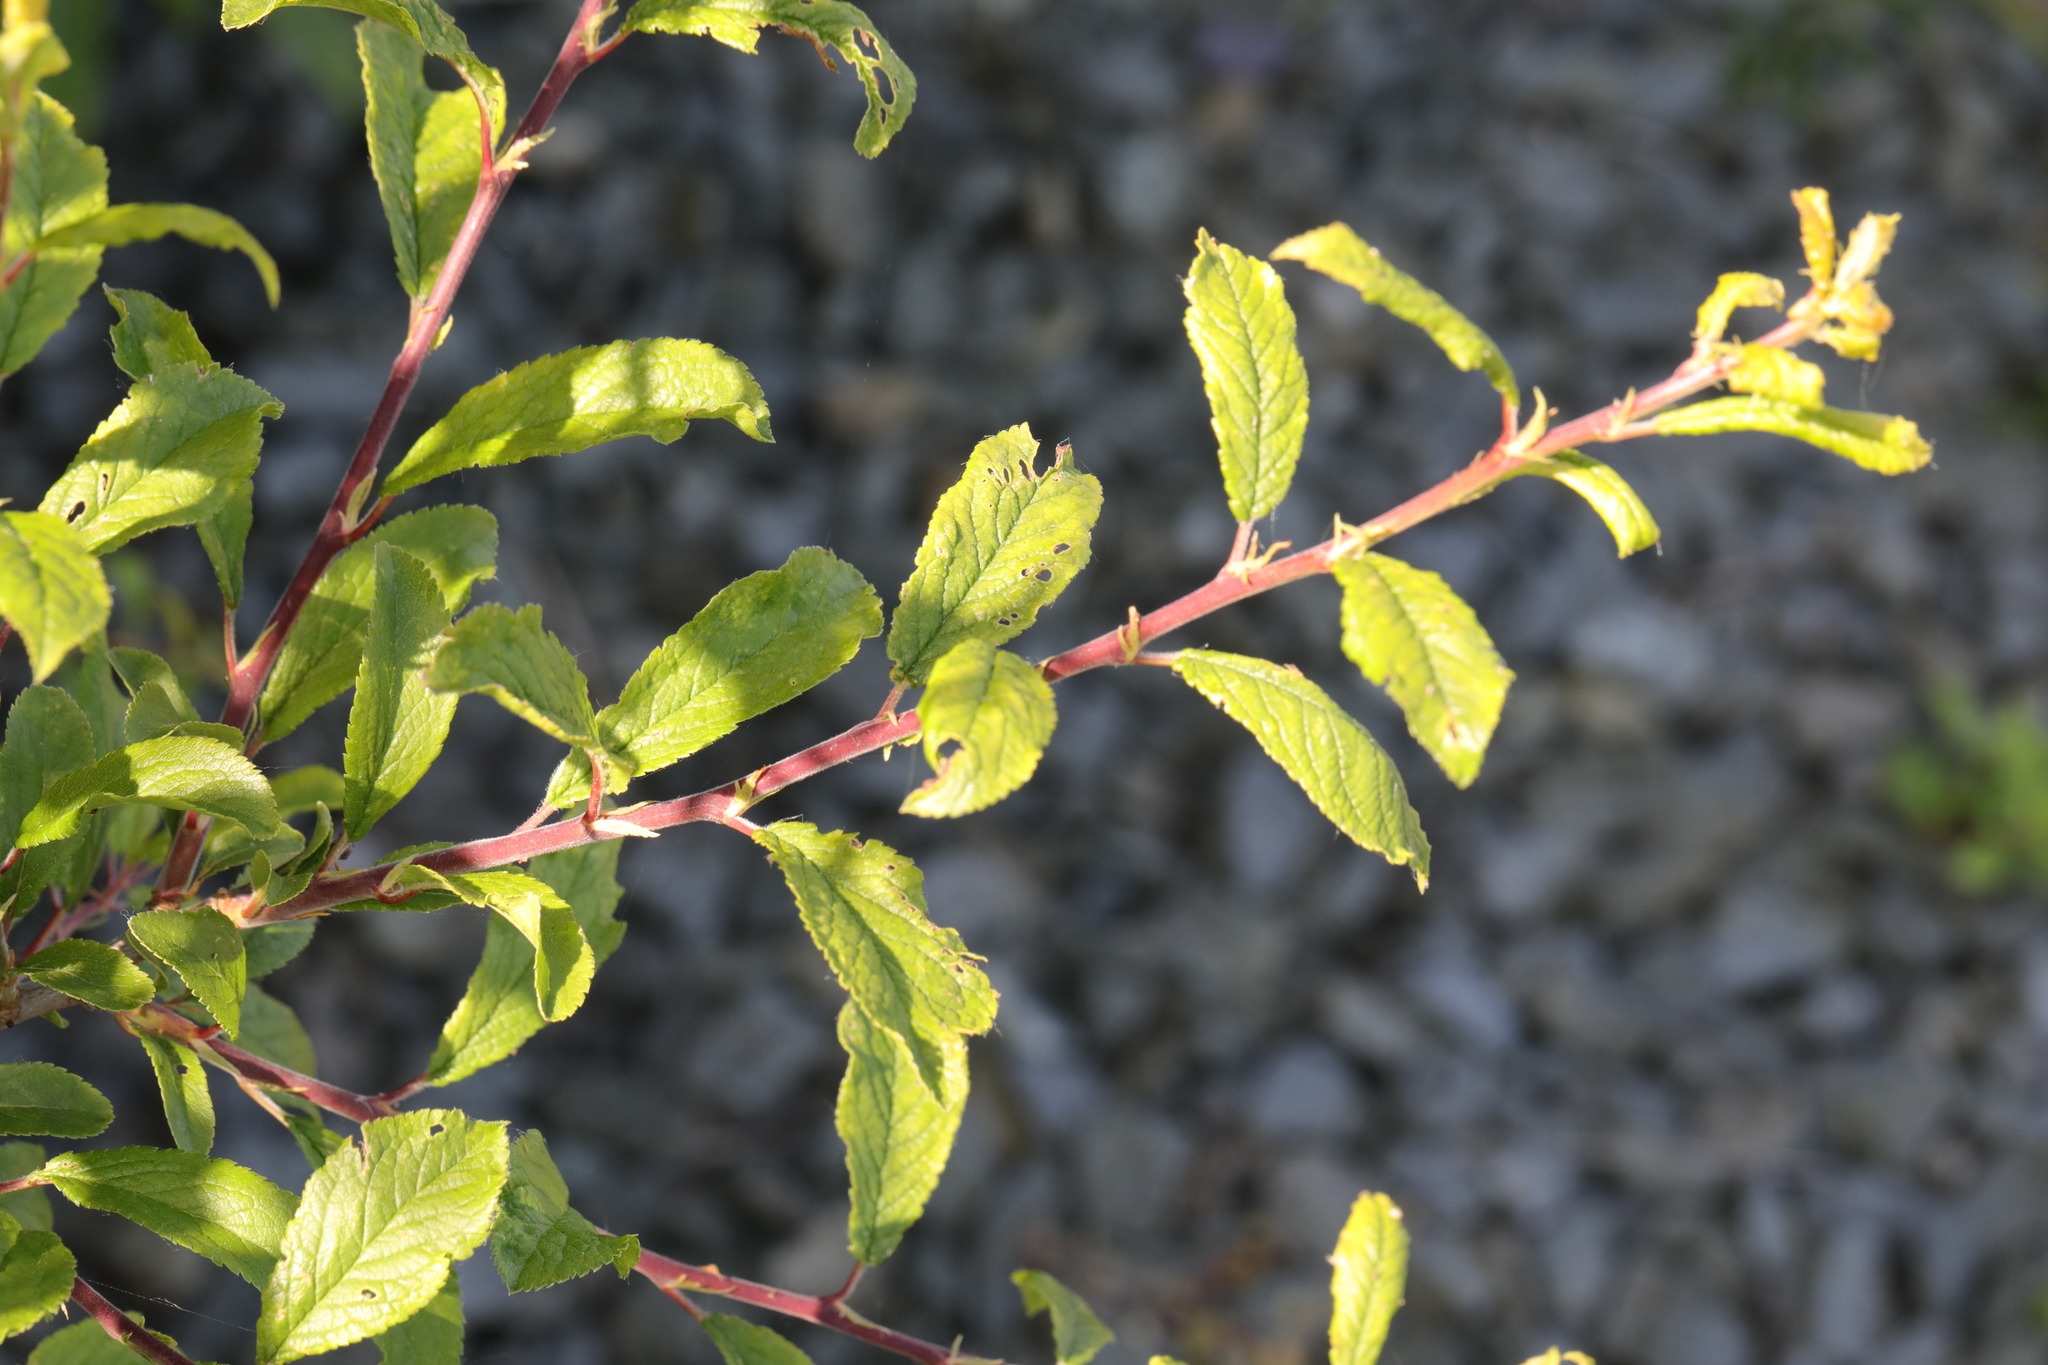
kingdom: Plantae
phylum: Tracheophyta
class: Magnoliopsida
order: Rosales
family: Rosaceae
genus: Prunus
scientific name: Prunus spinosa
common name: Blackthorn
